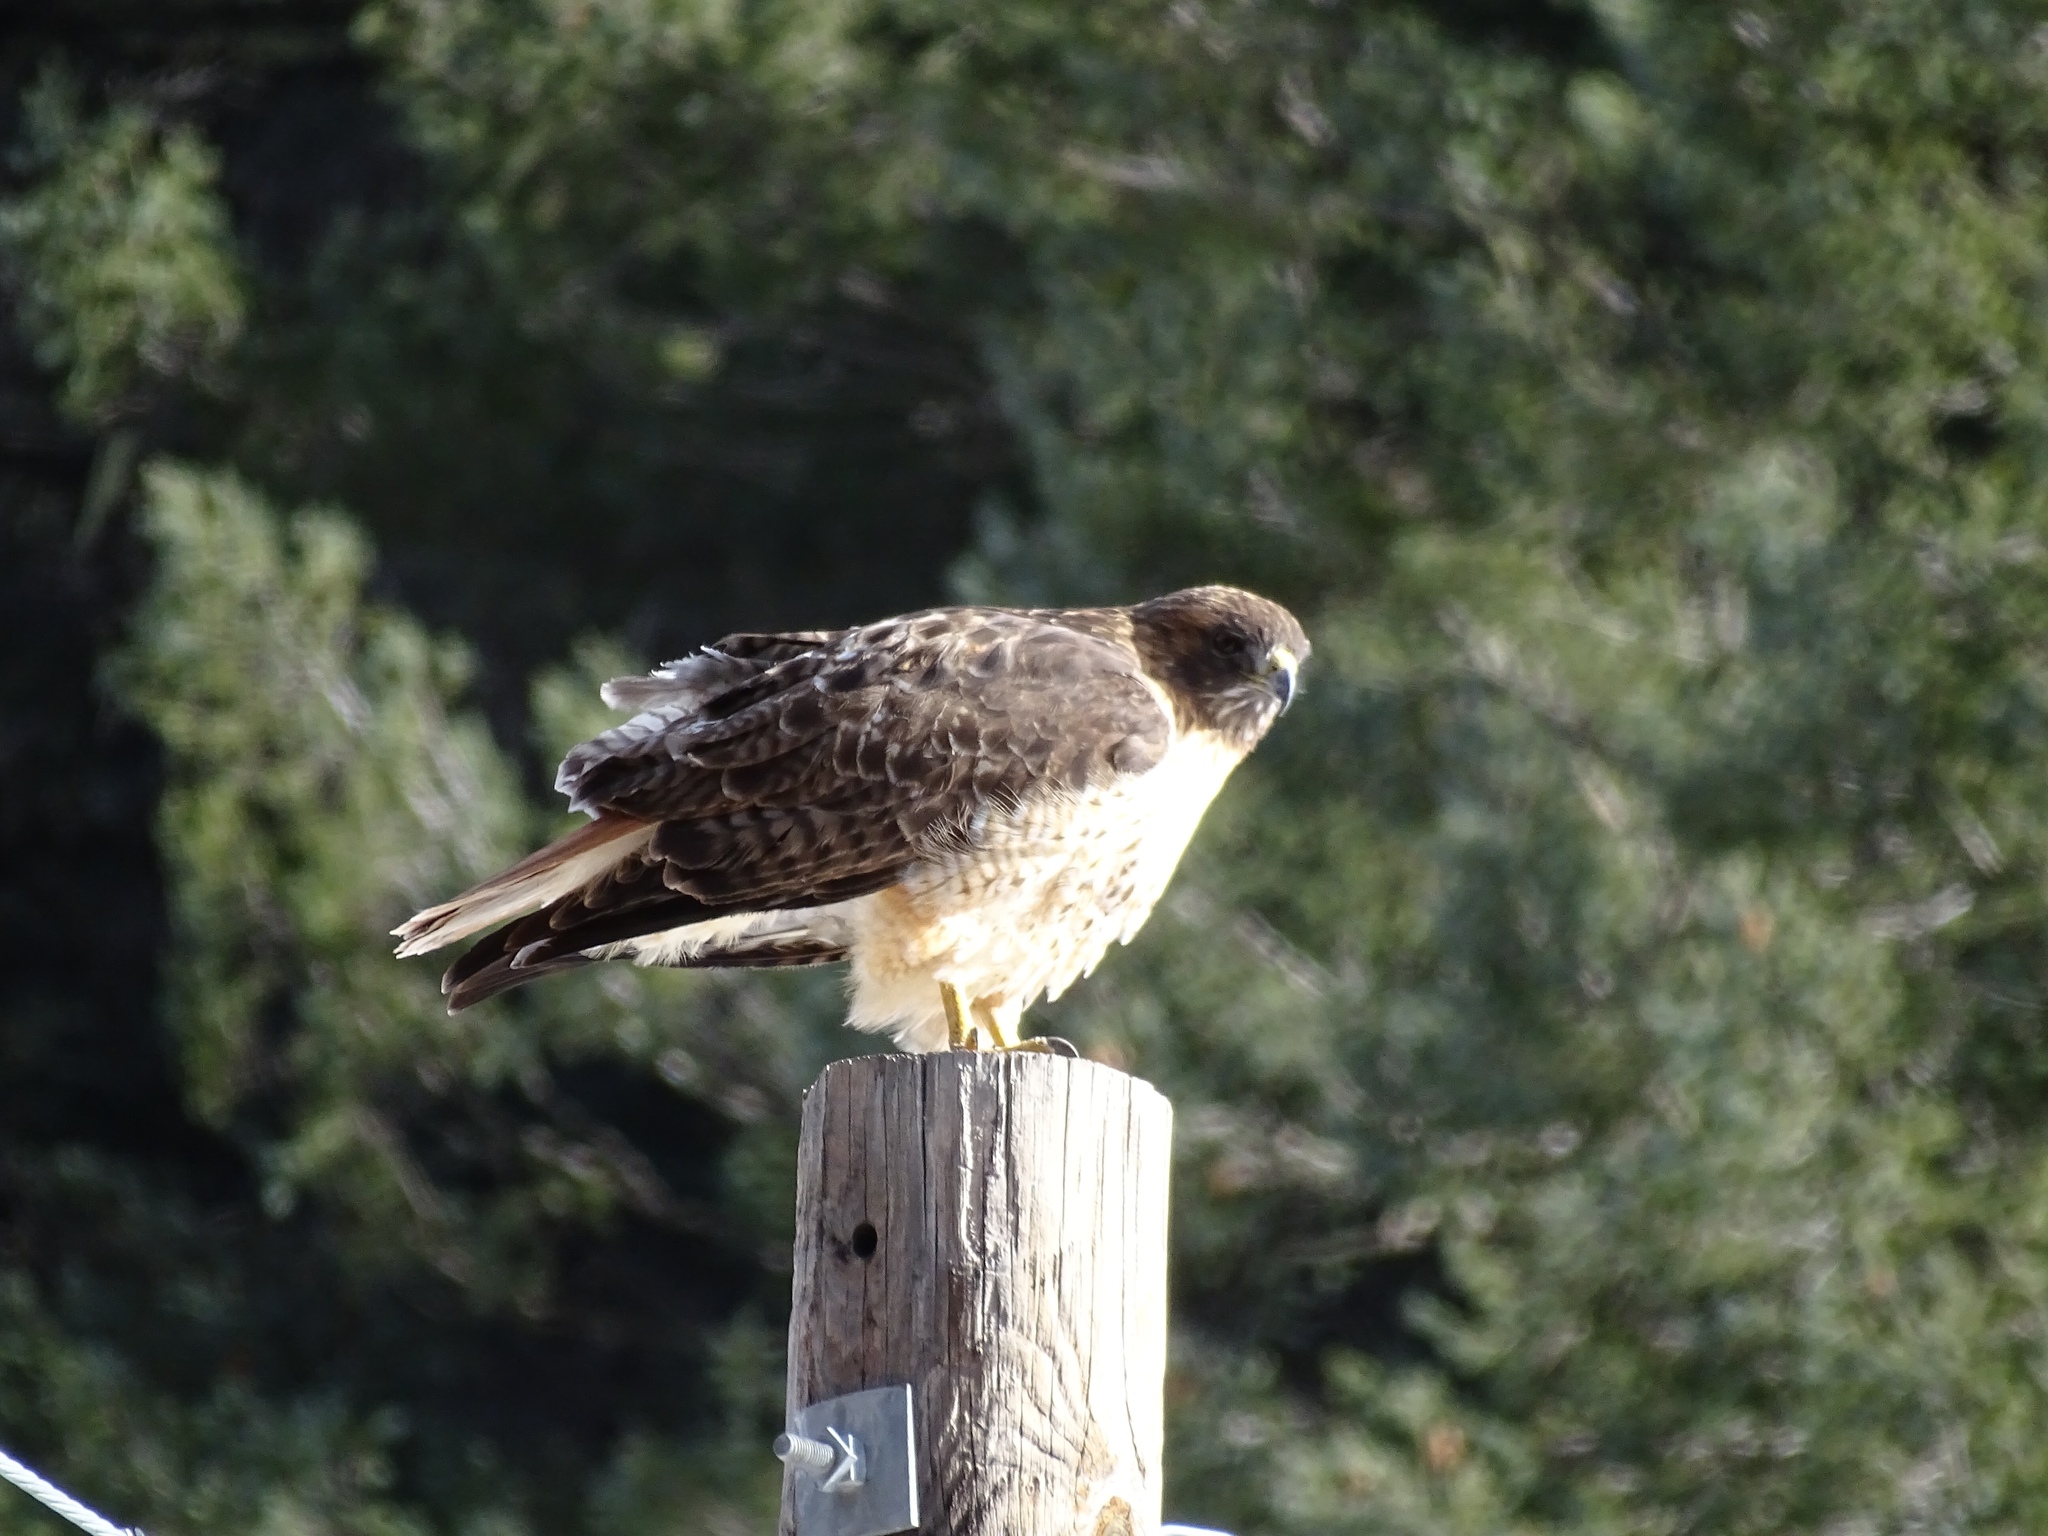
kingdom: Animalia
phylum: Chordata
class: Aves
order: Accipitriformes
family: Accipitridae
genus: Buteo
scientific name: Buteo jamaicensis
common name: Red-tailed hawk
